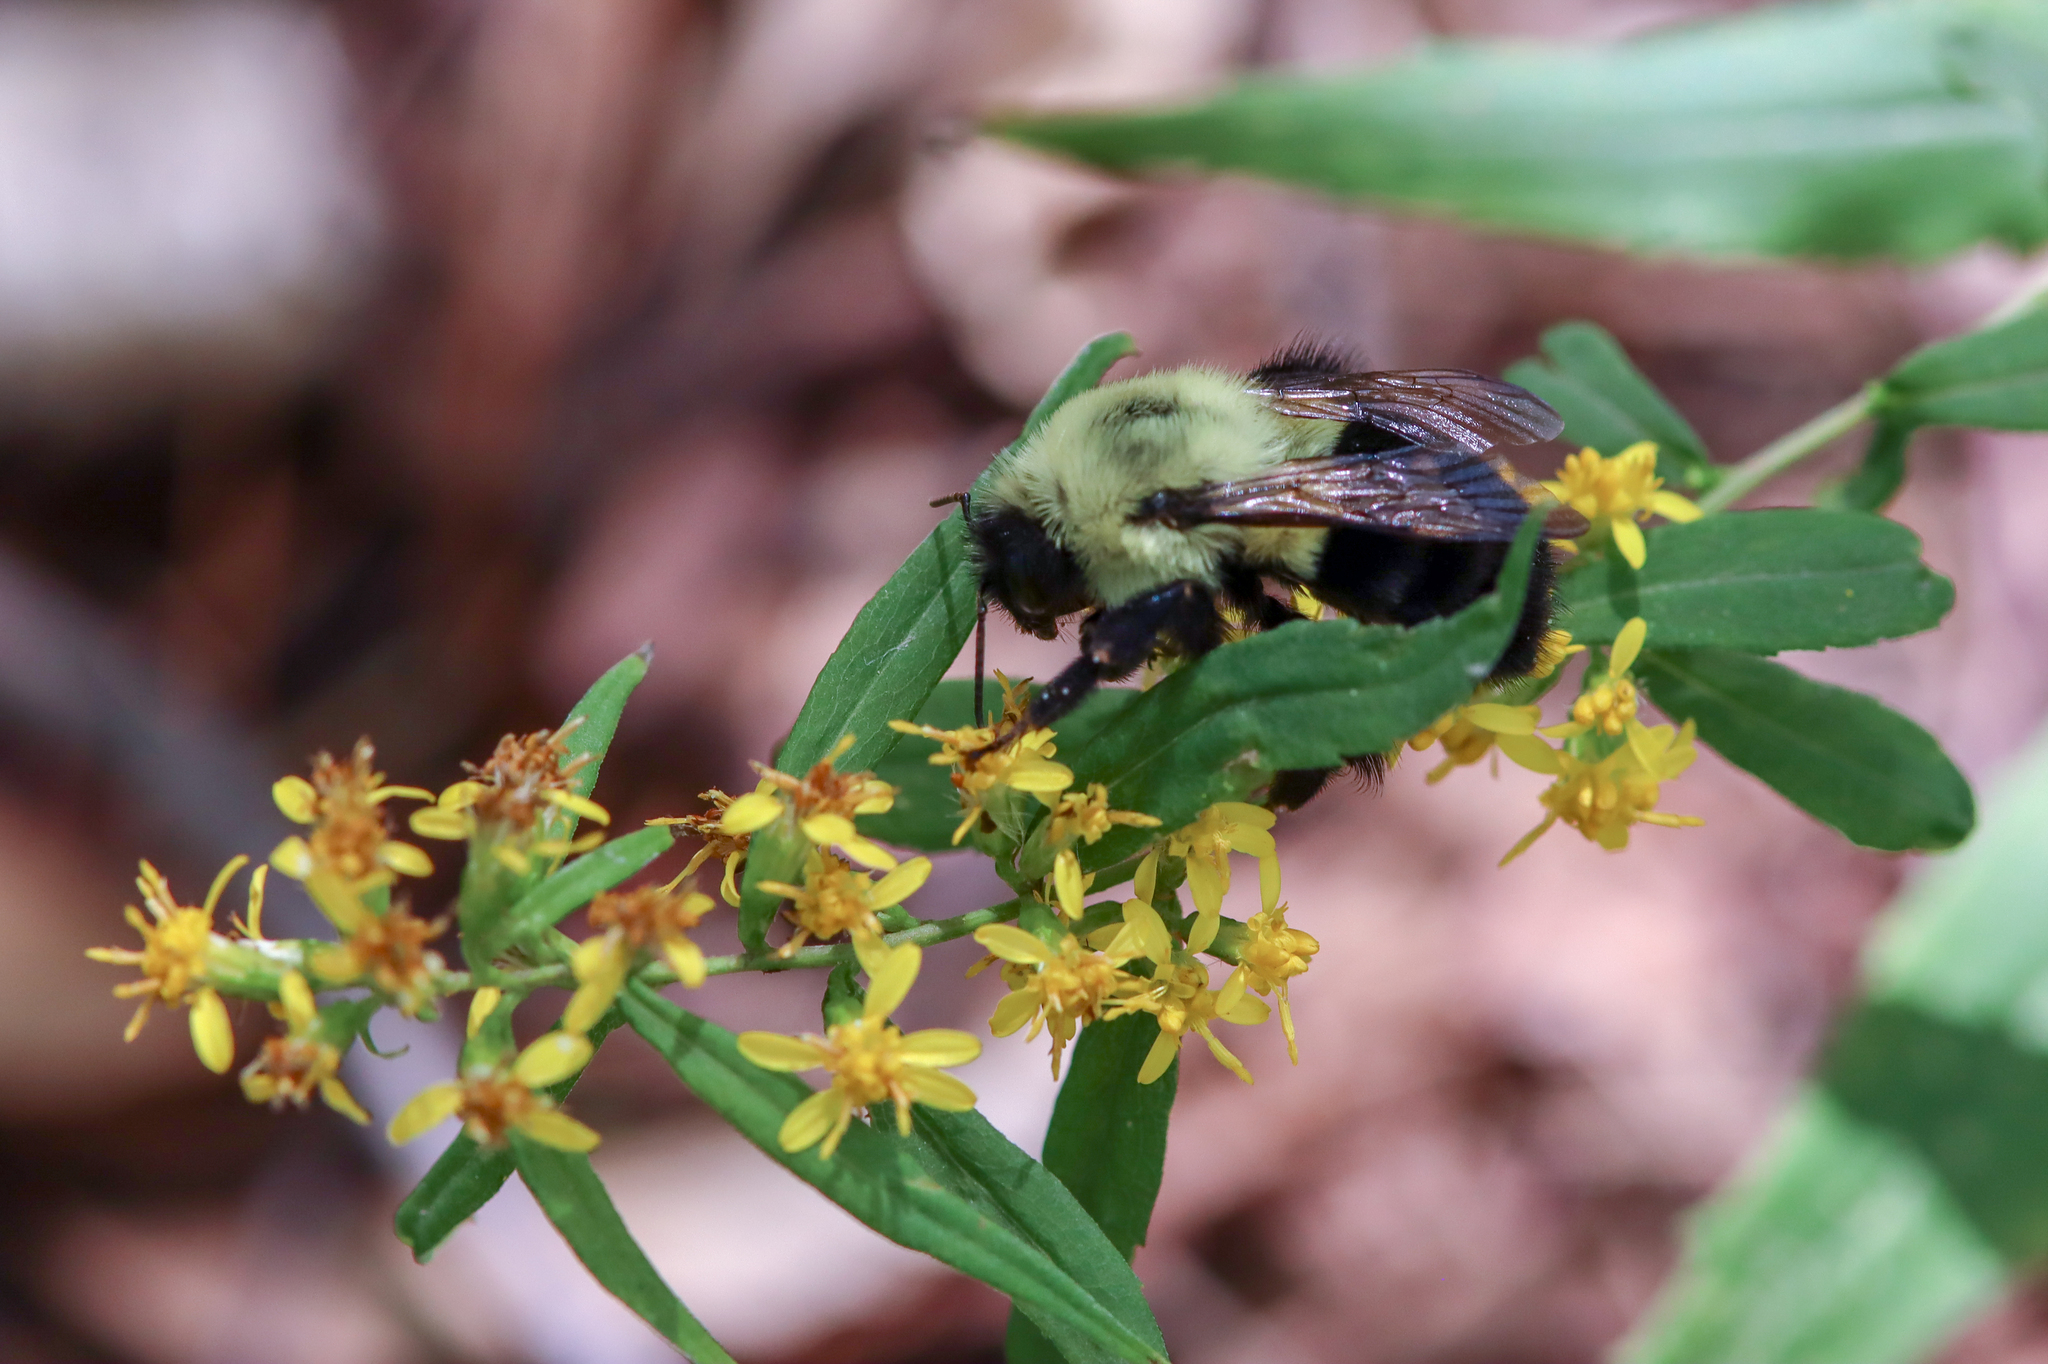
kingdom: Animalia
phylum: Arthropoda
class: Insecta
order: Hymenoptera
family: Apidae
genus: Bombus
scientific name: Bombus impatiens
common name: Common eastern bumble bee
